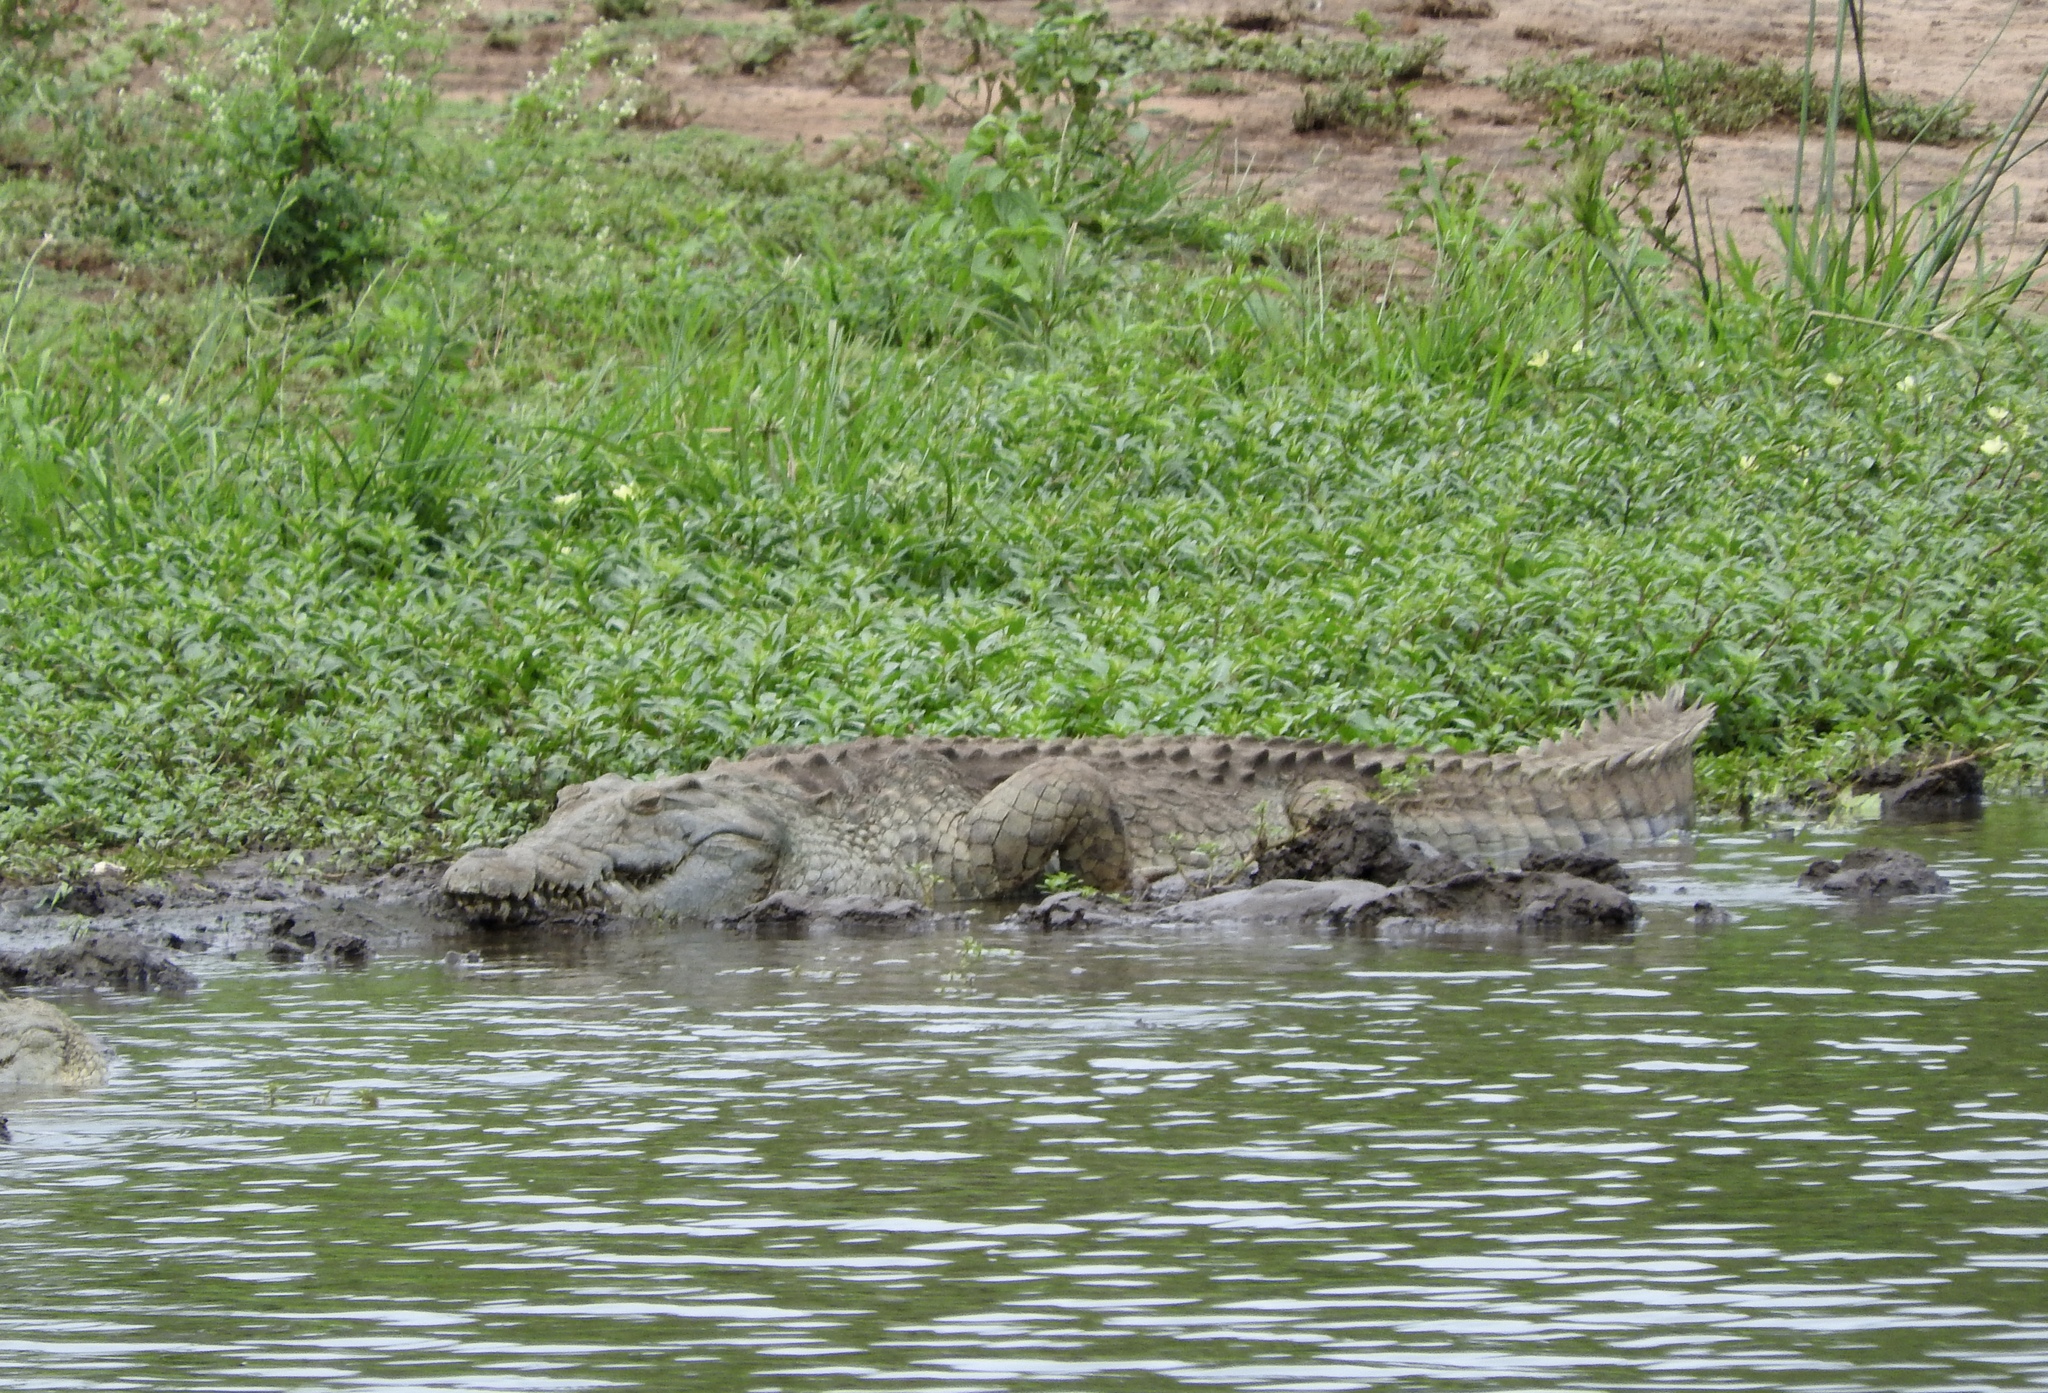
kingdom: Animalia
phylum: Chordata
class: Crocodylia
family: Crocodylidae
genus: Crocodylus
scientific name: Crocodylus niloticus
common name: Nile crocodile
